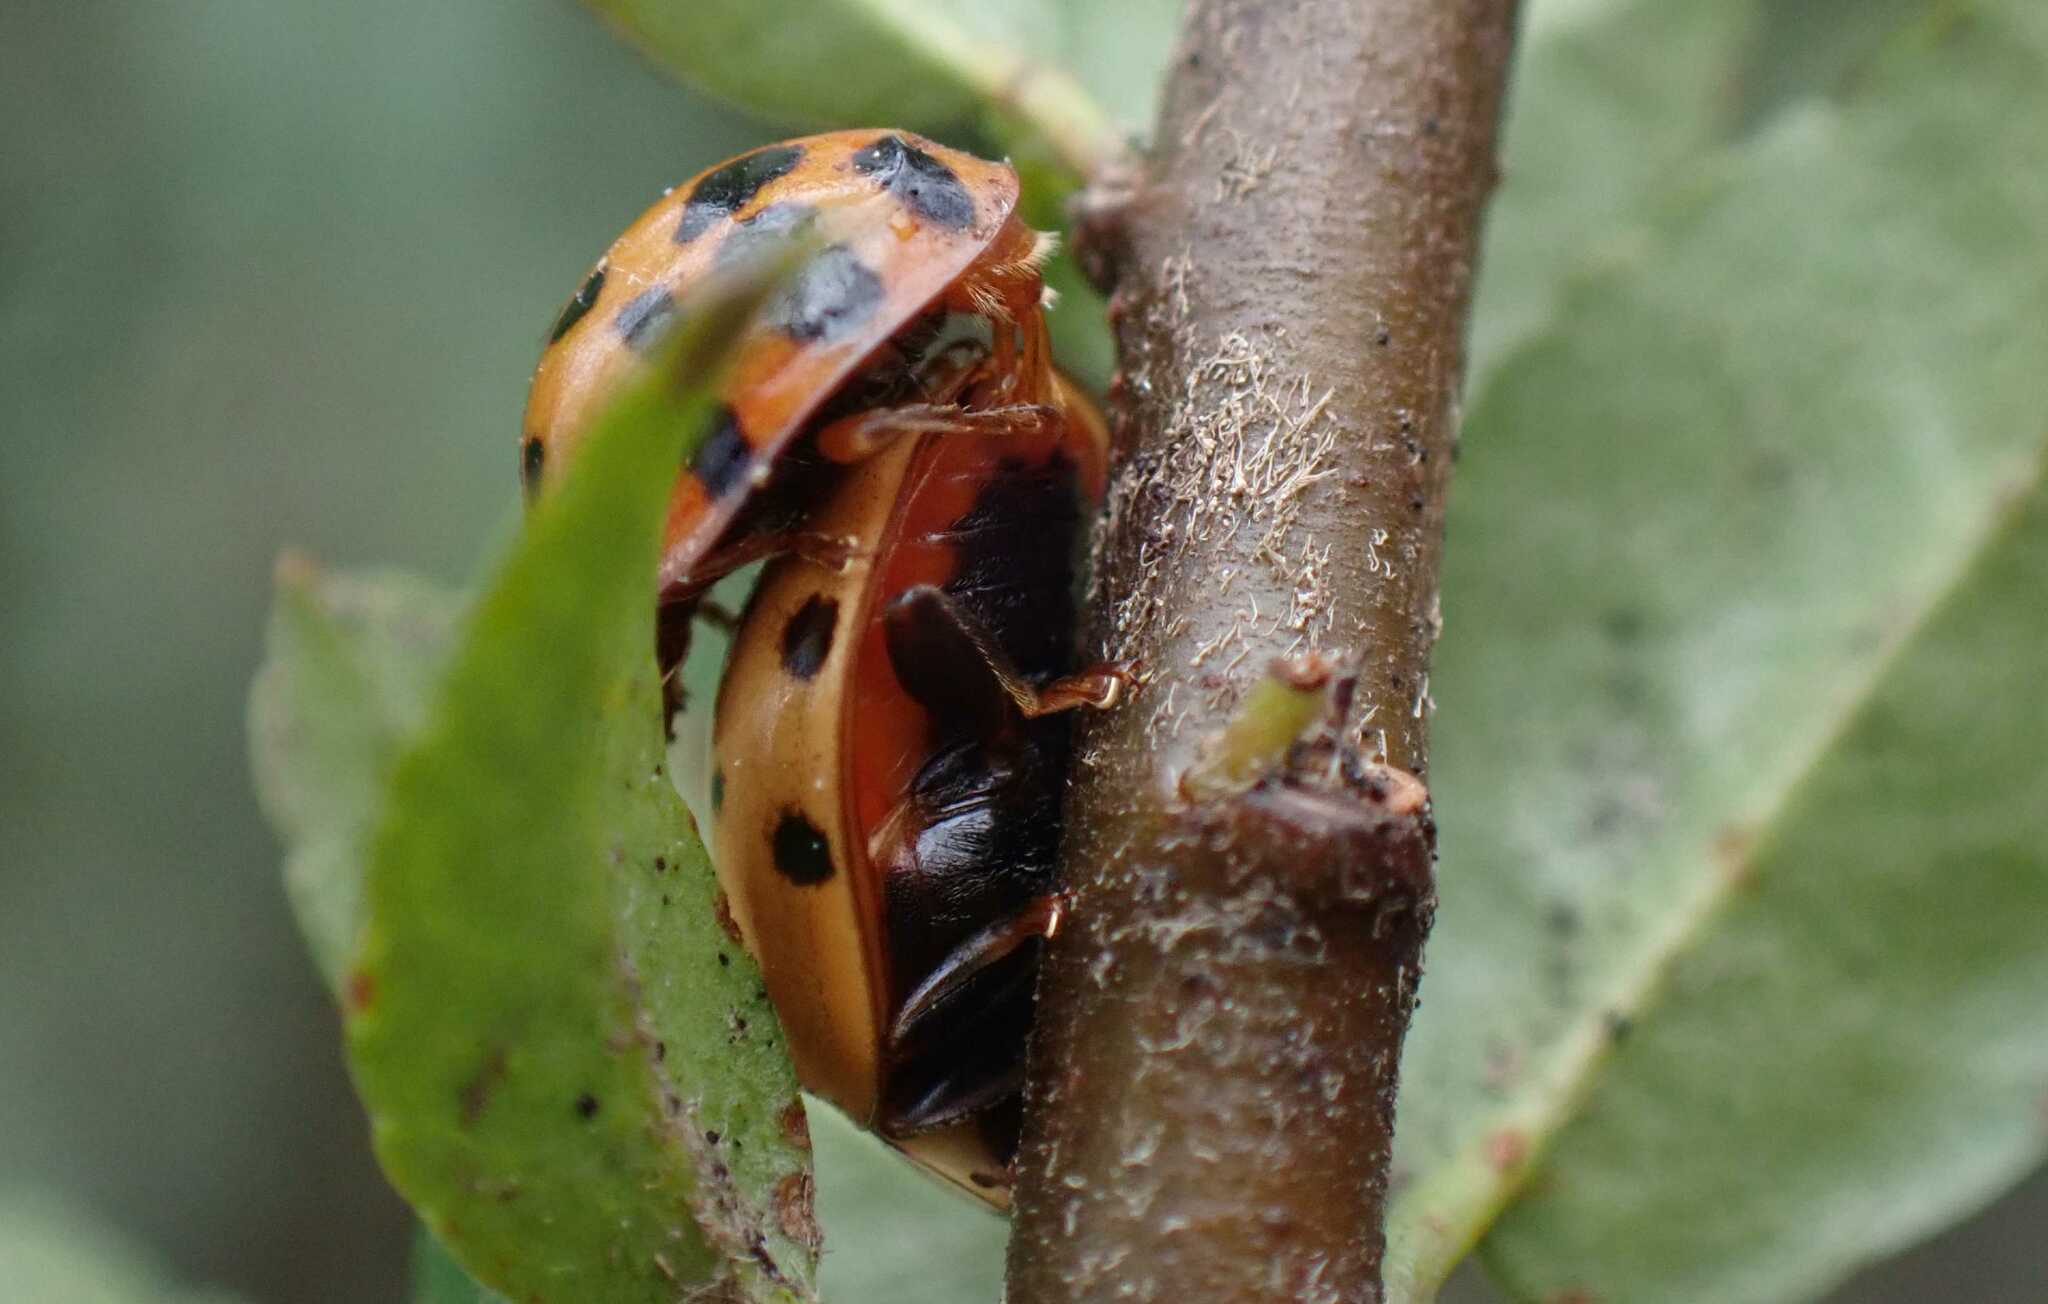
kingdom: Animalia
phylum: Arthropoda
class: Insecta
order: Coleoptera
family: Coccinellidae
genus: Harmonia
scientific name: Harmonia axyridis
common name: Harlequin ladybird
